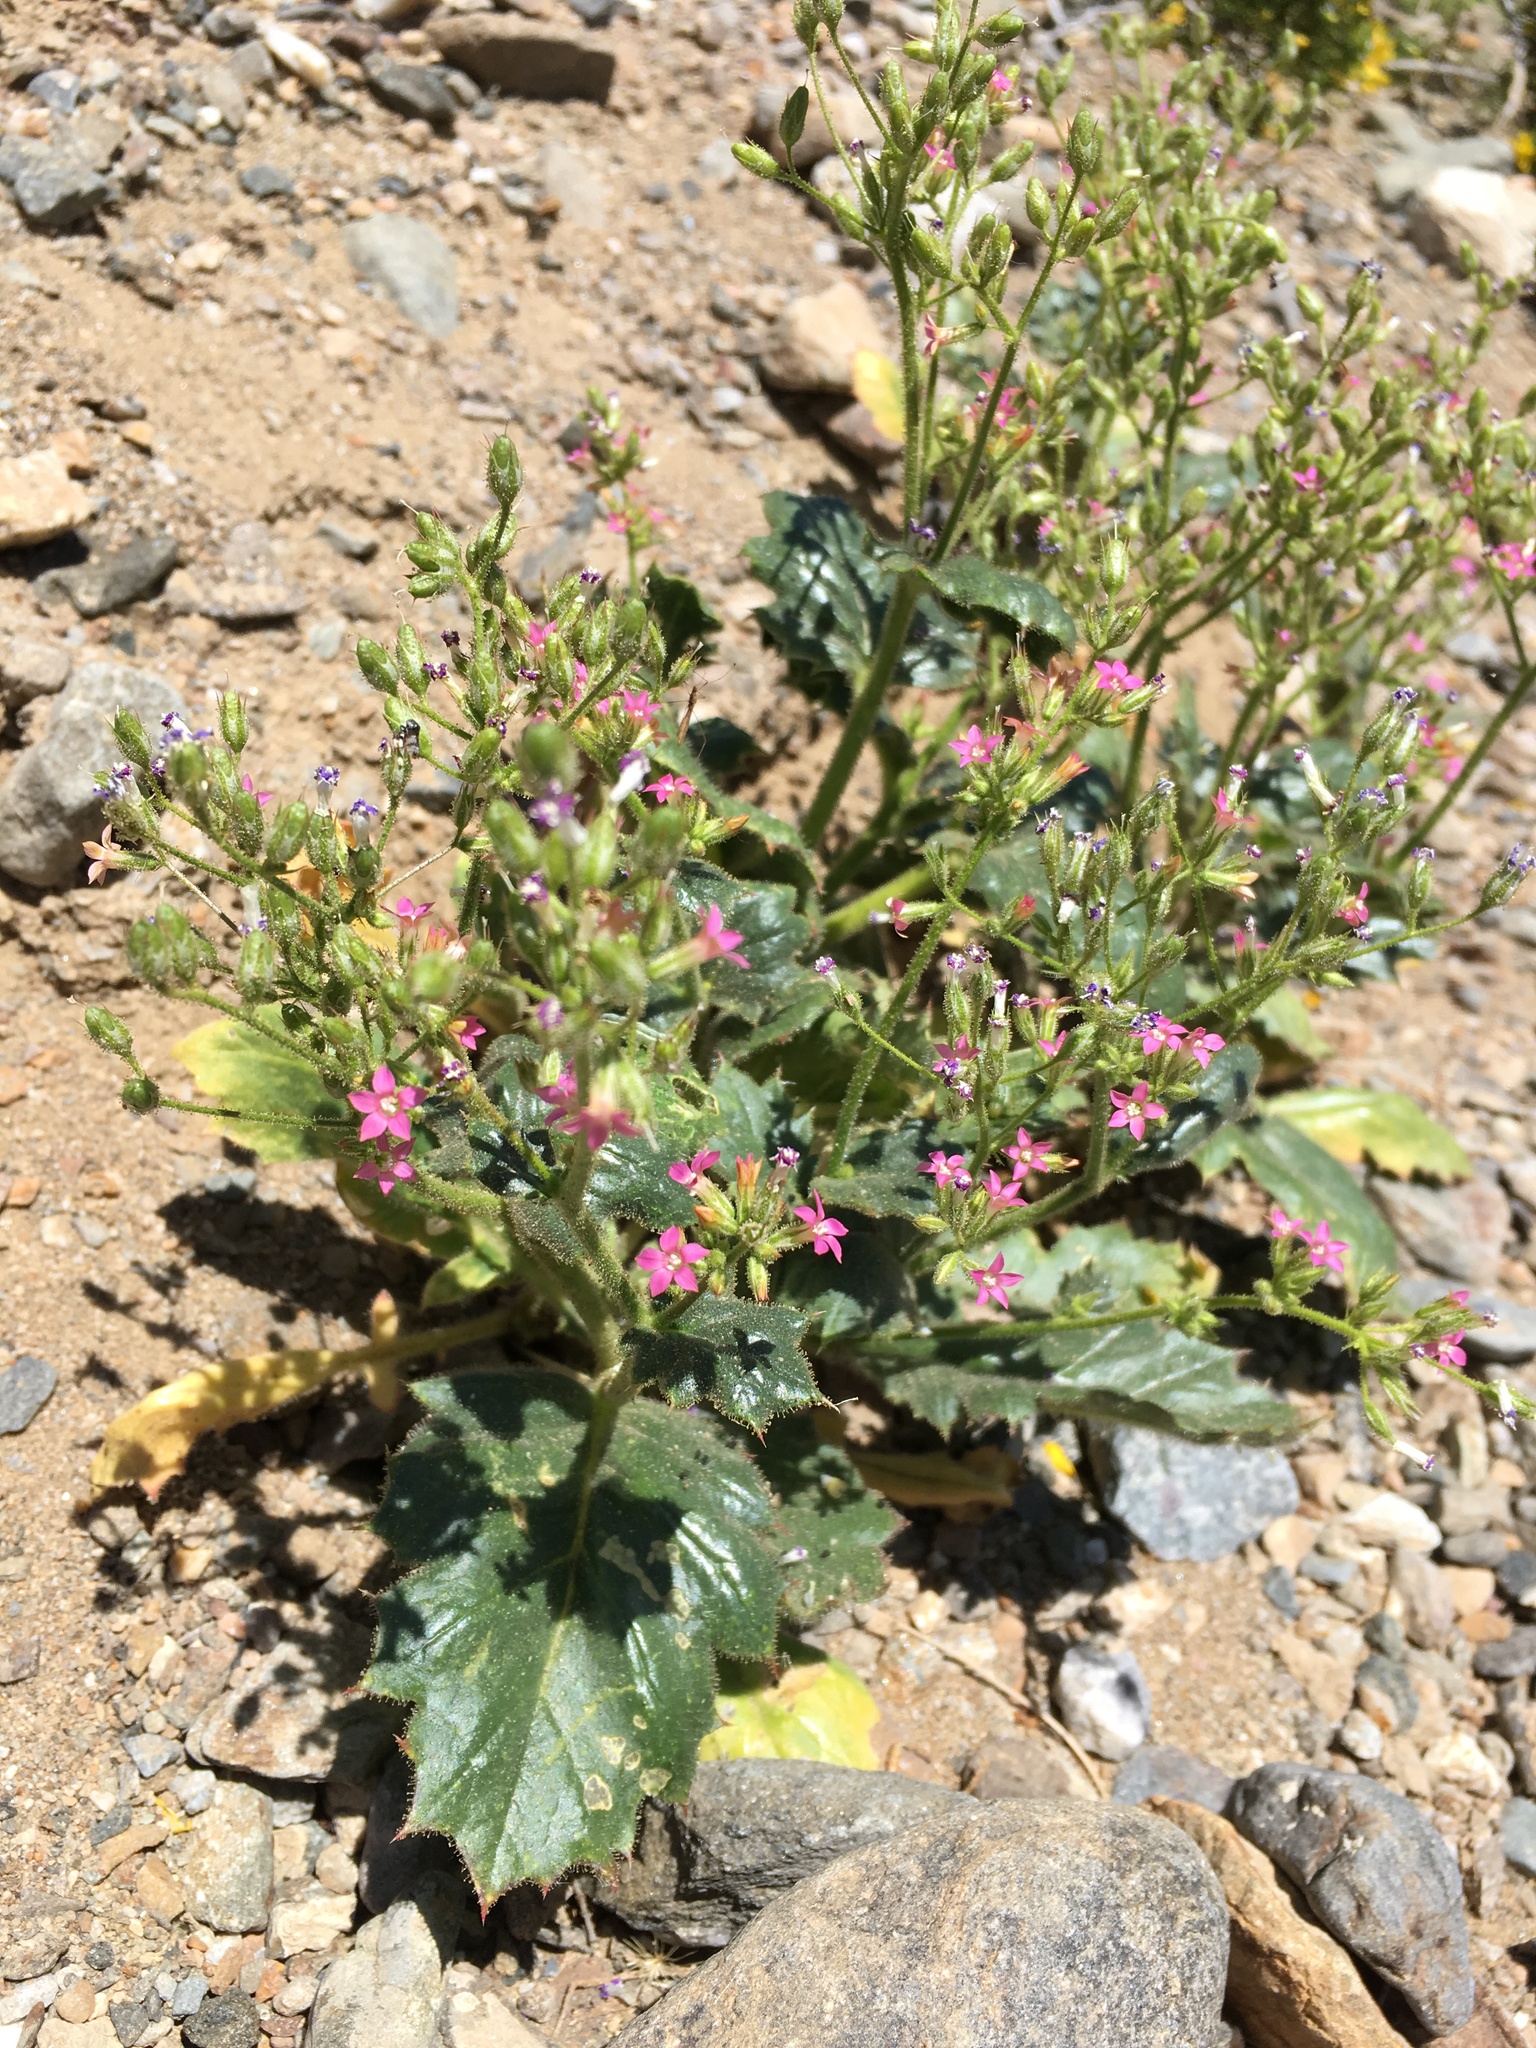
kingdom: Plantae
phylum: Tracheophyta
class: Magnoliopsida
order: Ericales
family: Polemoniaceae
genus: Aliciella
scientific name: Aliciella latifolia
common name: Broad-leaf gilia
